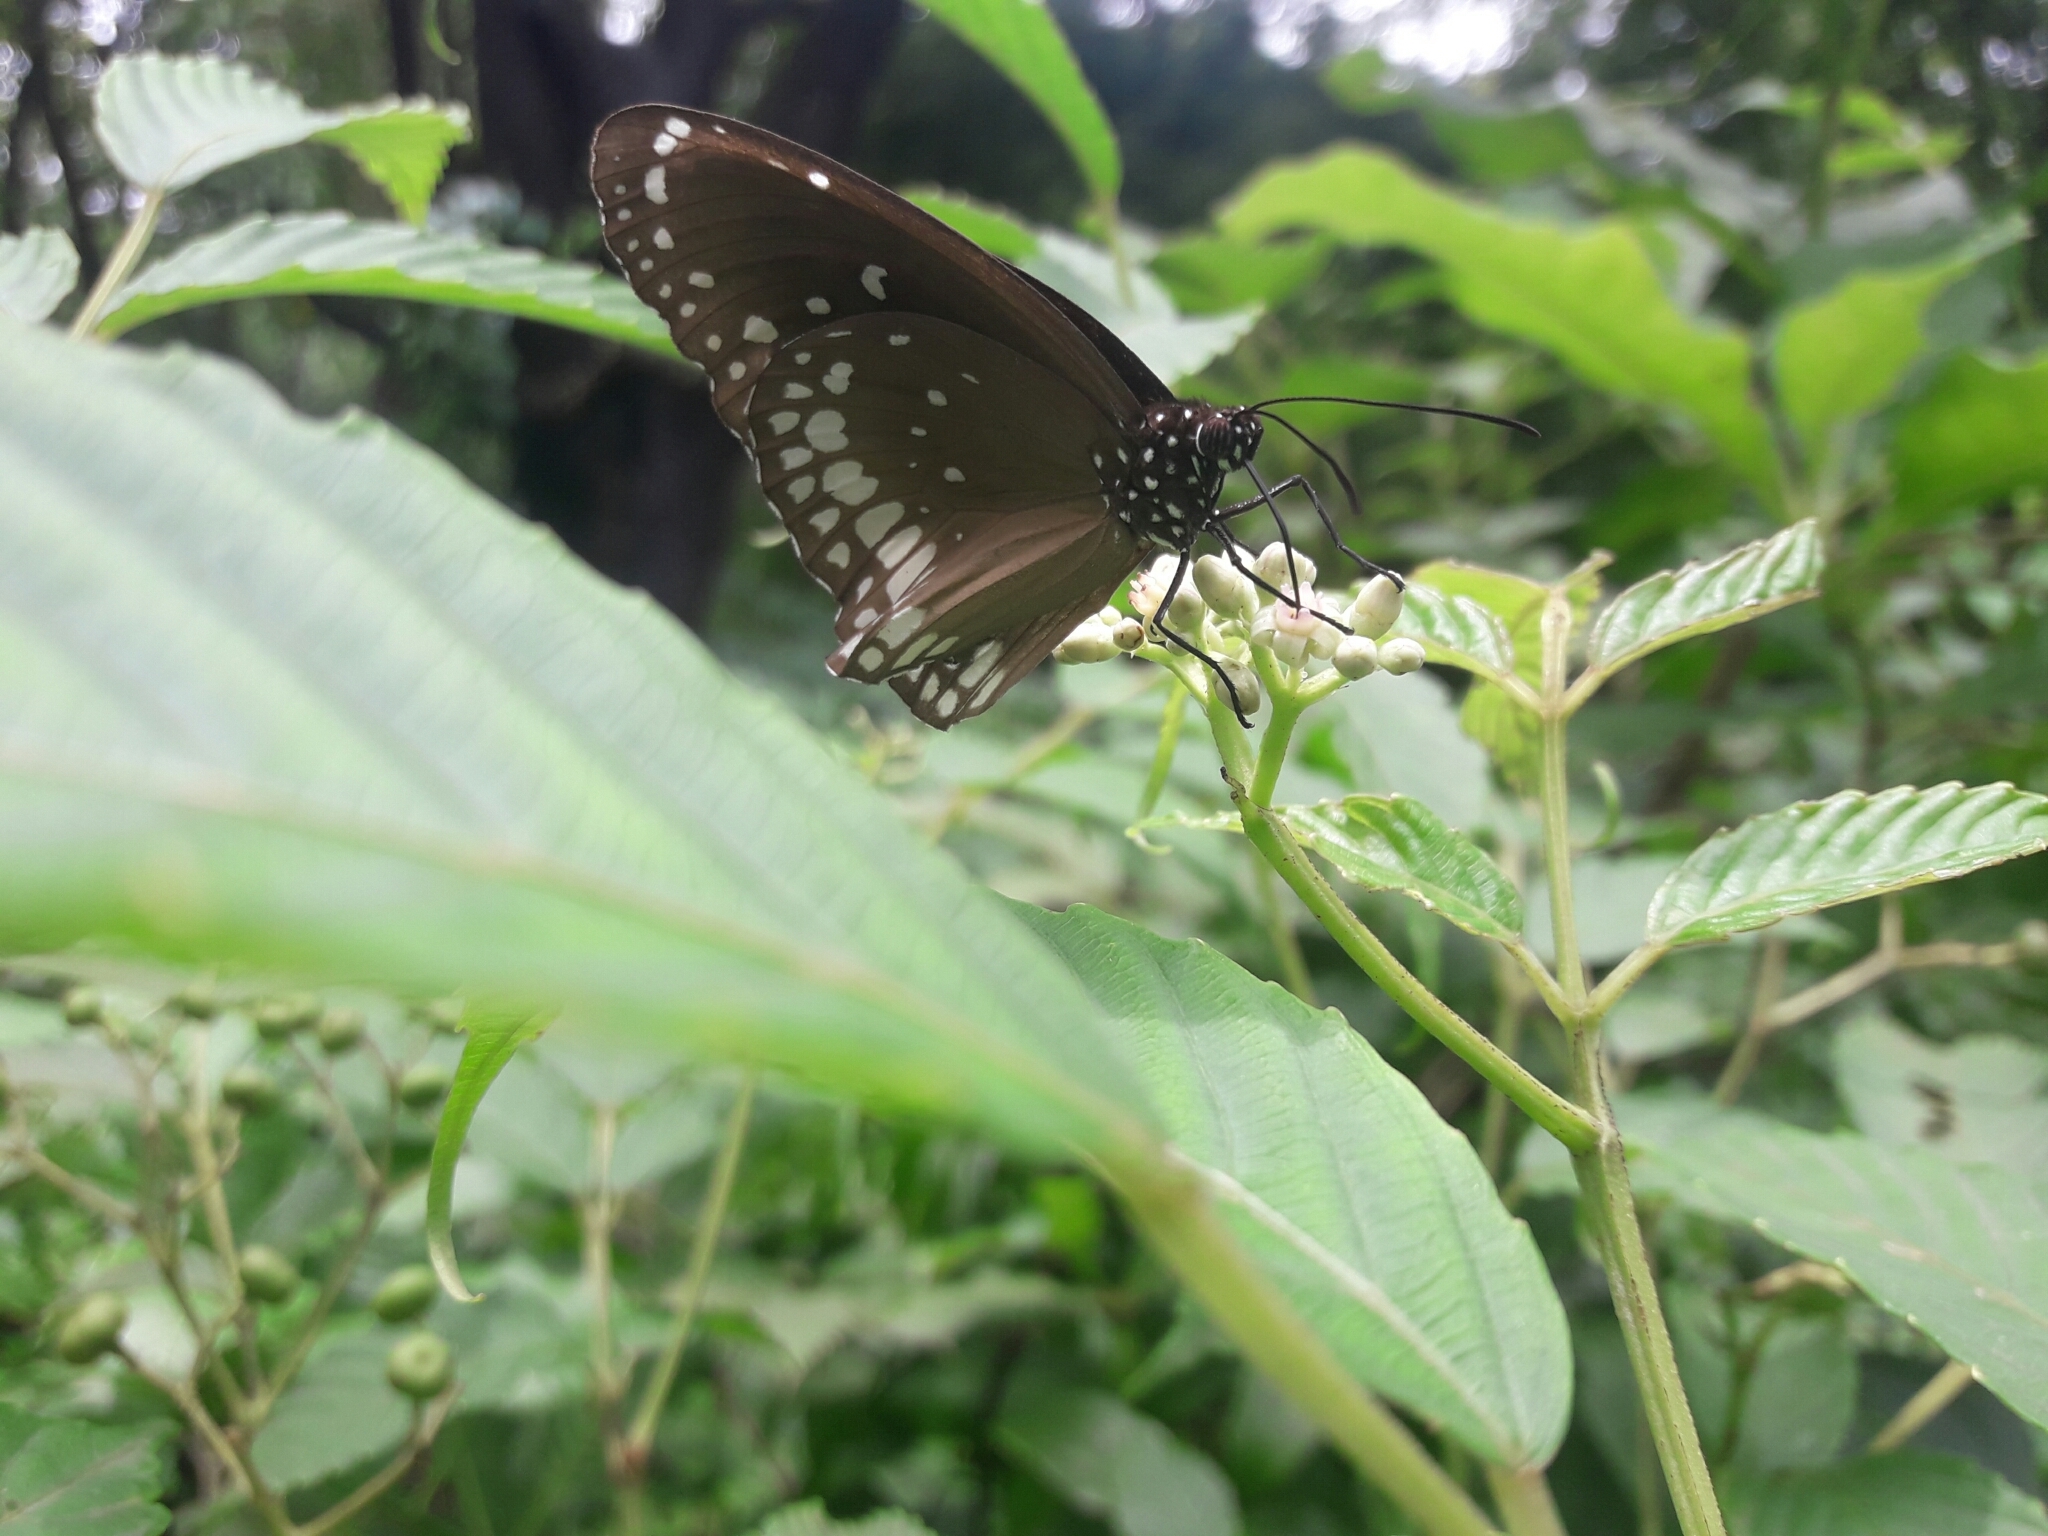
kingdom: Animalia
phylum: Arthropoda
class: Insecta
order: Lepidoptera
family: Nymphalidae
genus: Euploea
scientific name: Euploea core
